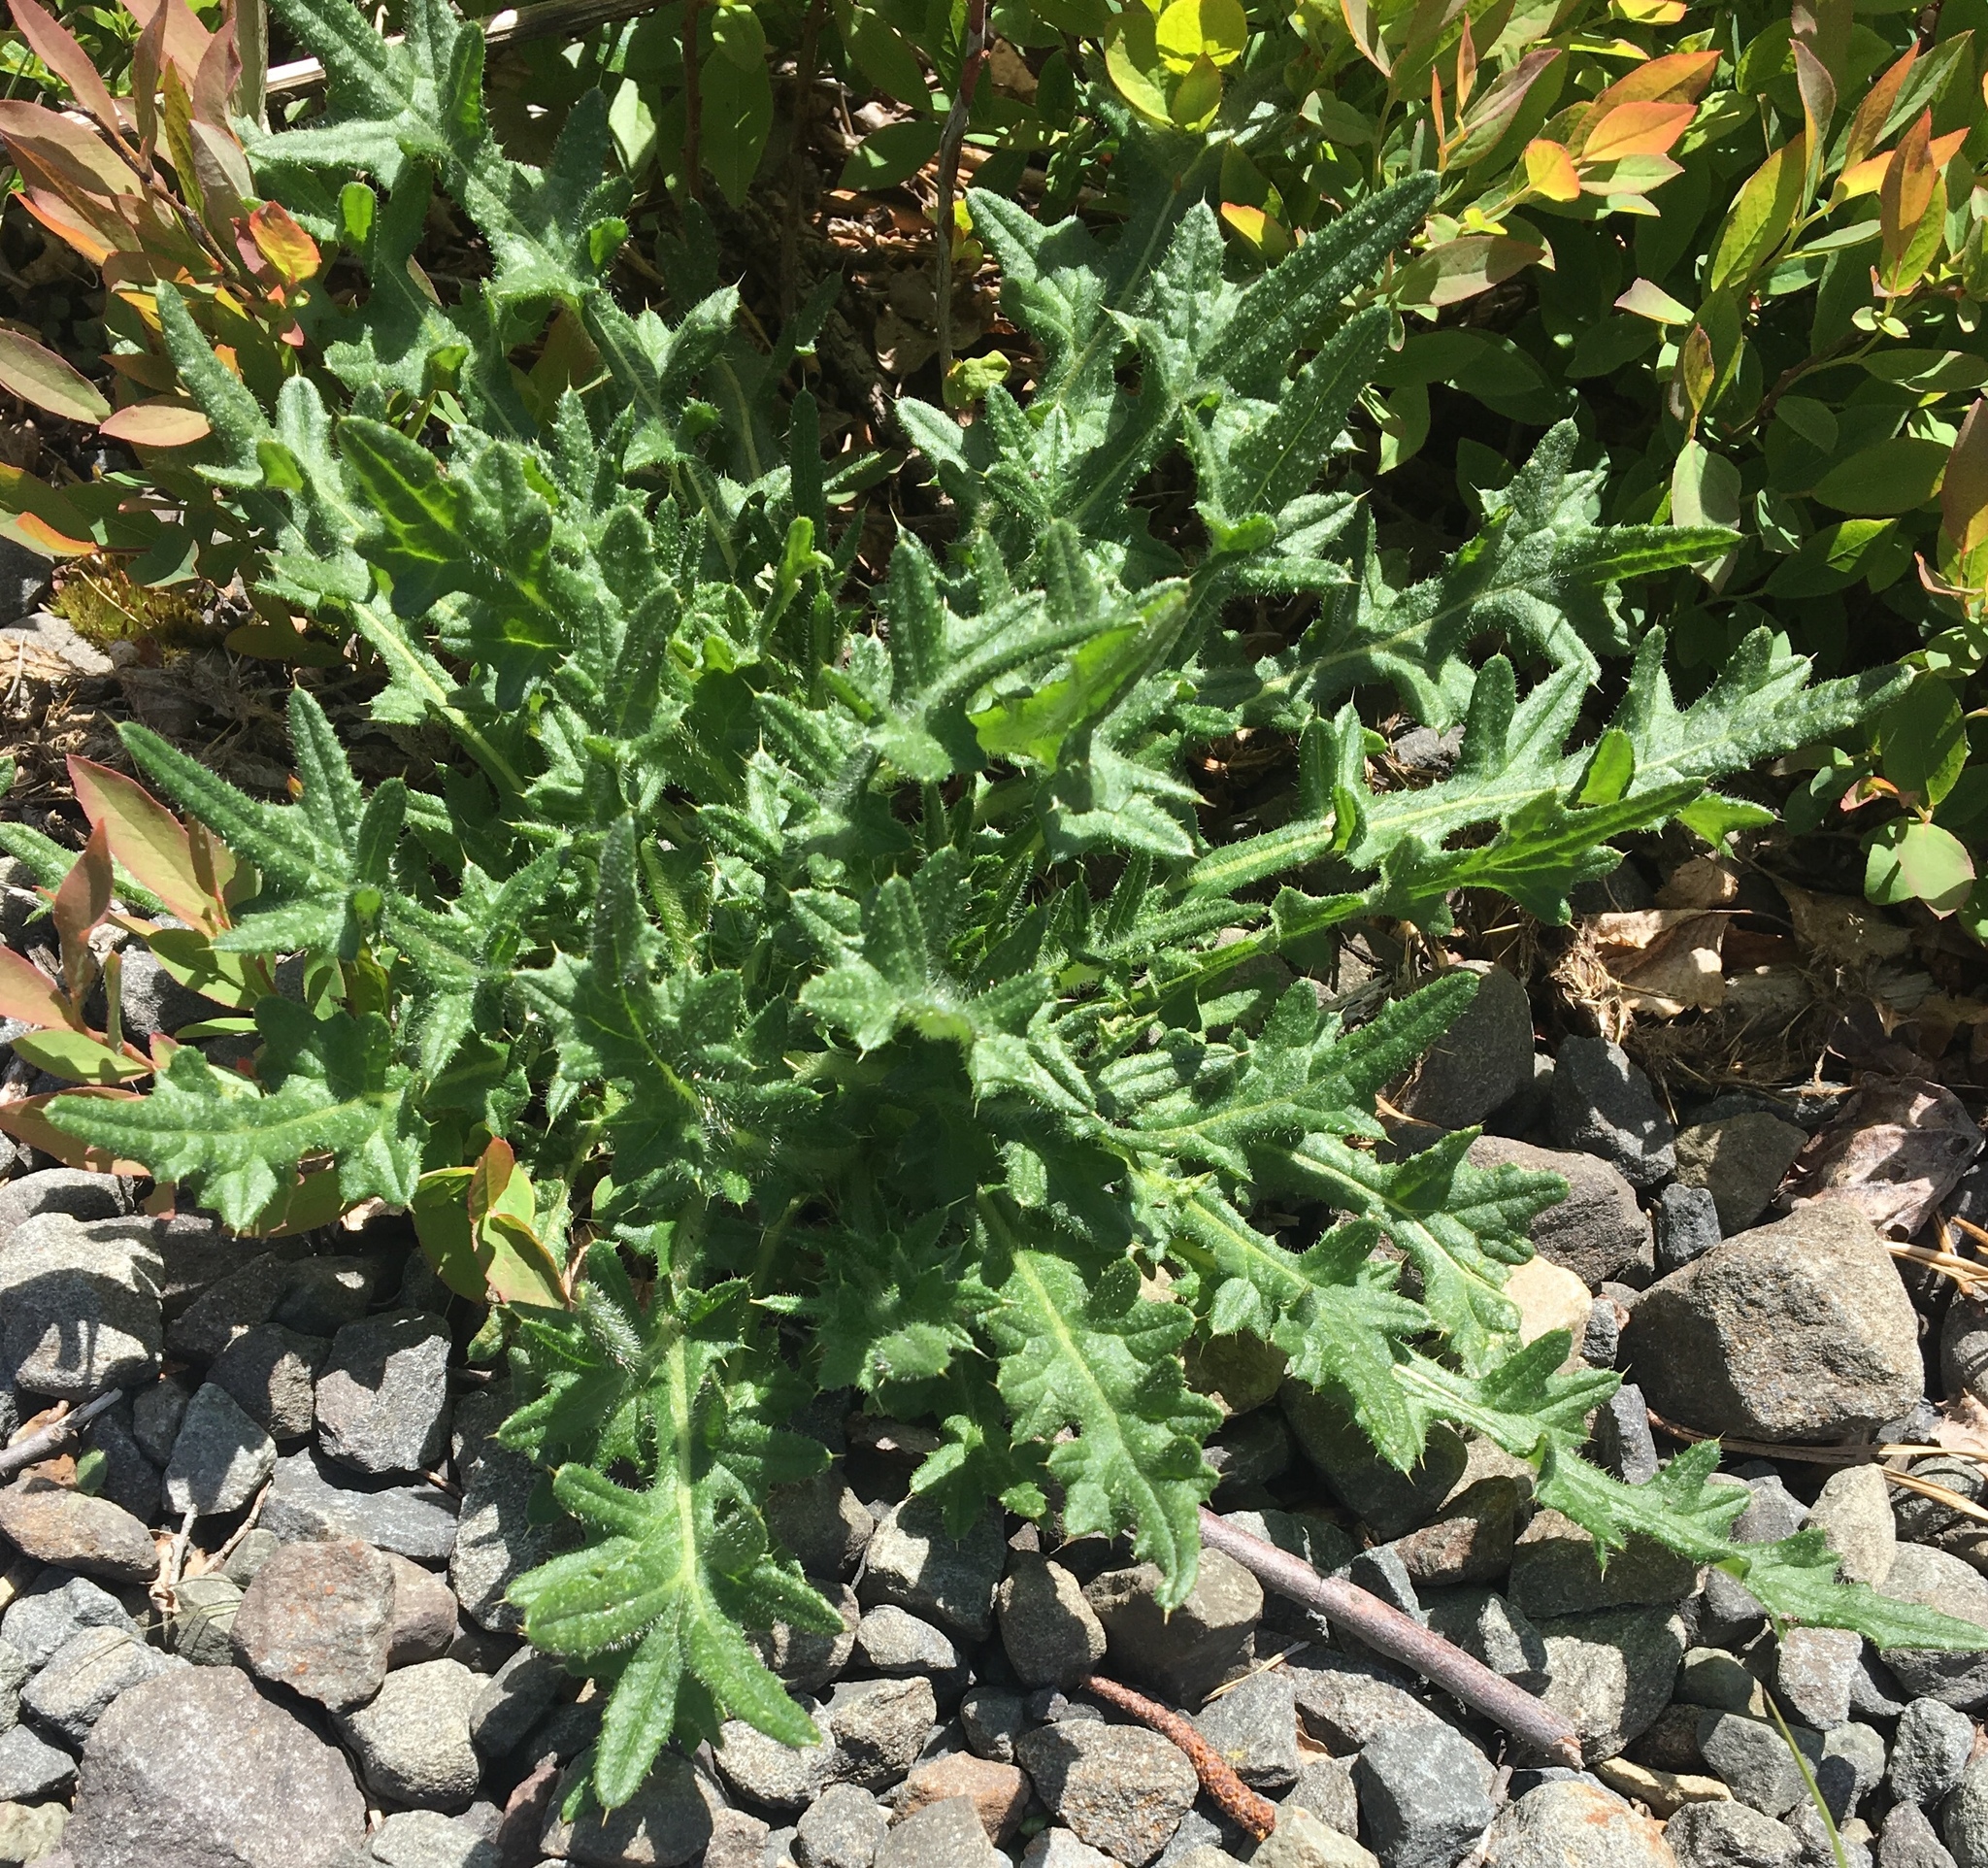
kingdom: Plantae
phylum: Tracheophyta
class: Magnoliopsida
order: Asterales
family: Asteraceae
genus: Cirsium
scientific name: Cirsium vulgare
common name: Bull thistle
